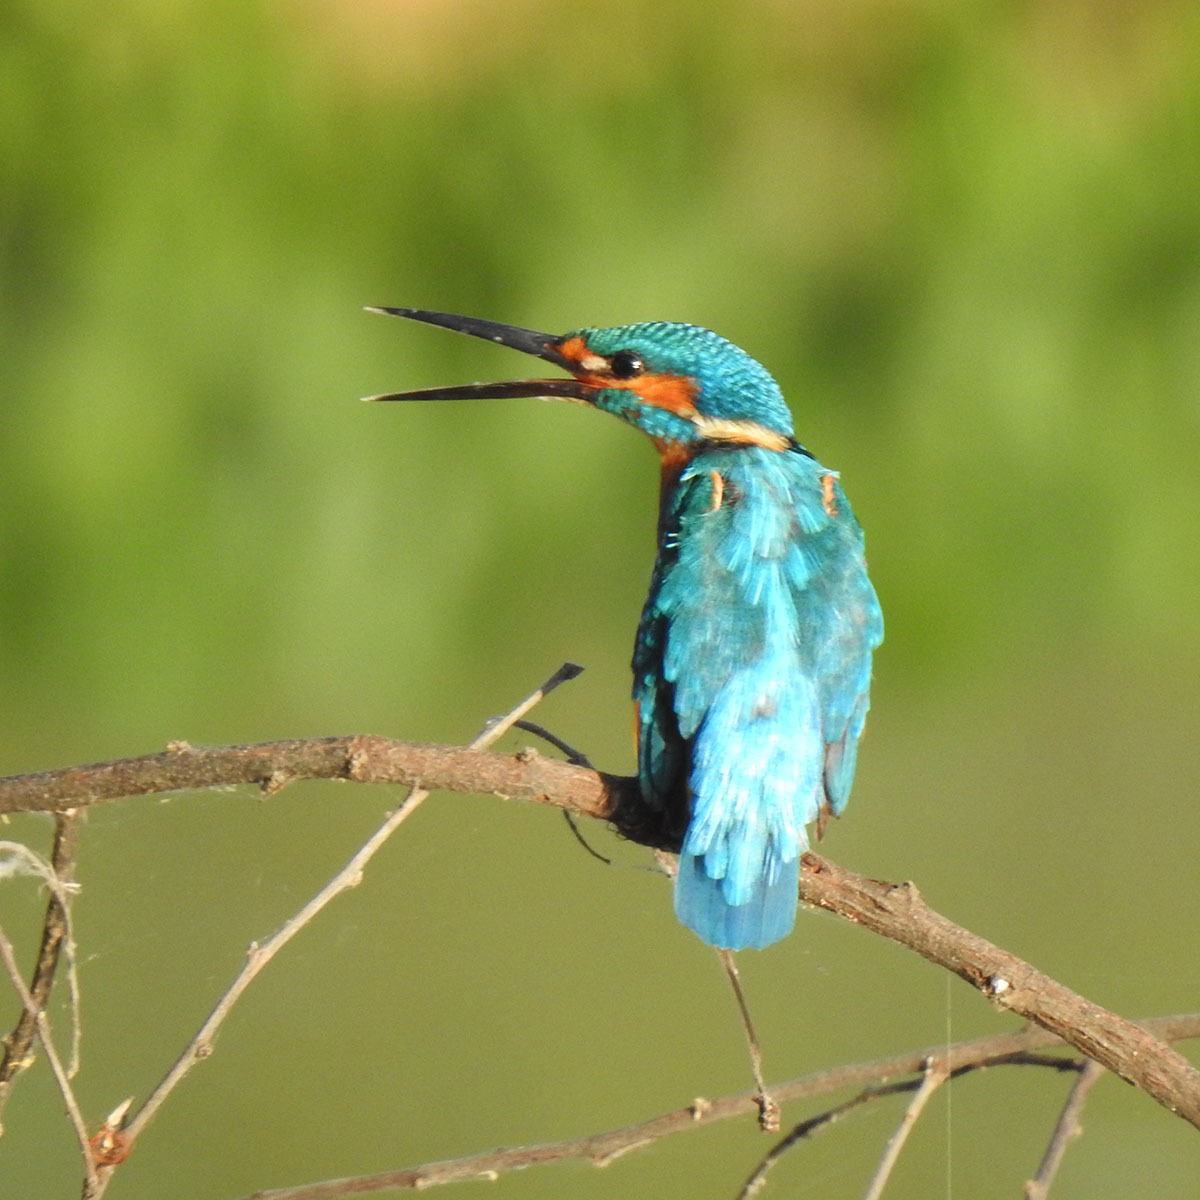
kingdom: Animalia
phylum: Chordata
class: Aves
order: Coraciiformes
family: Alcedinidae
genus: Alcedo
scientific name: Alcedo atthis
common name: Common kingfisher
